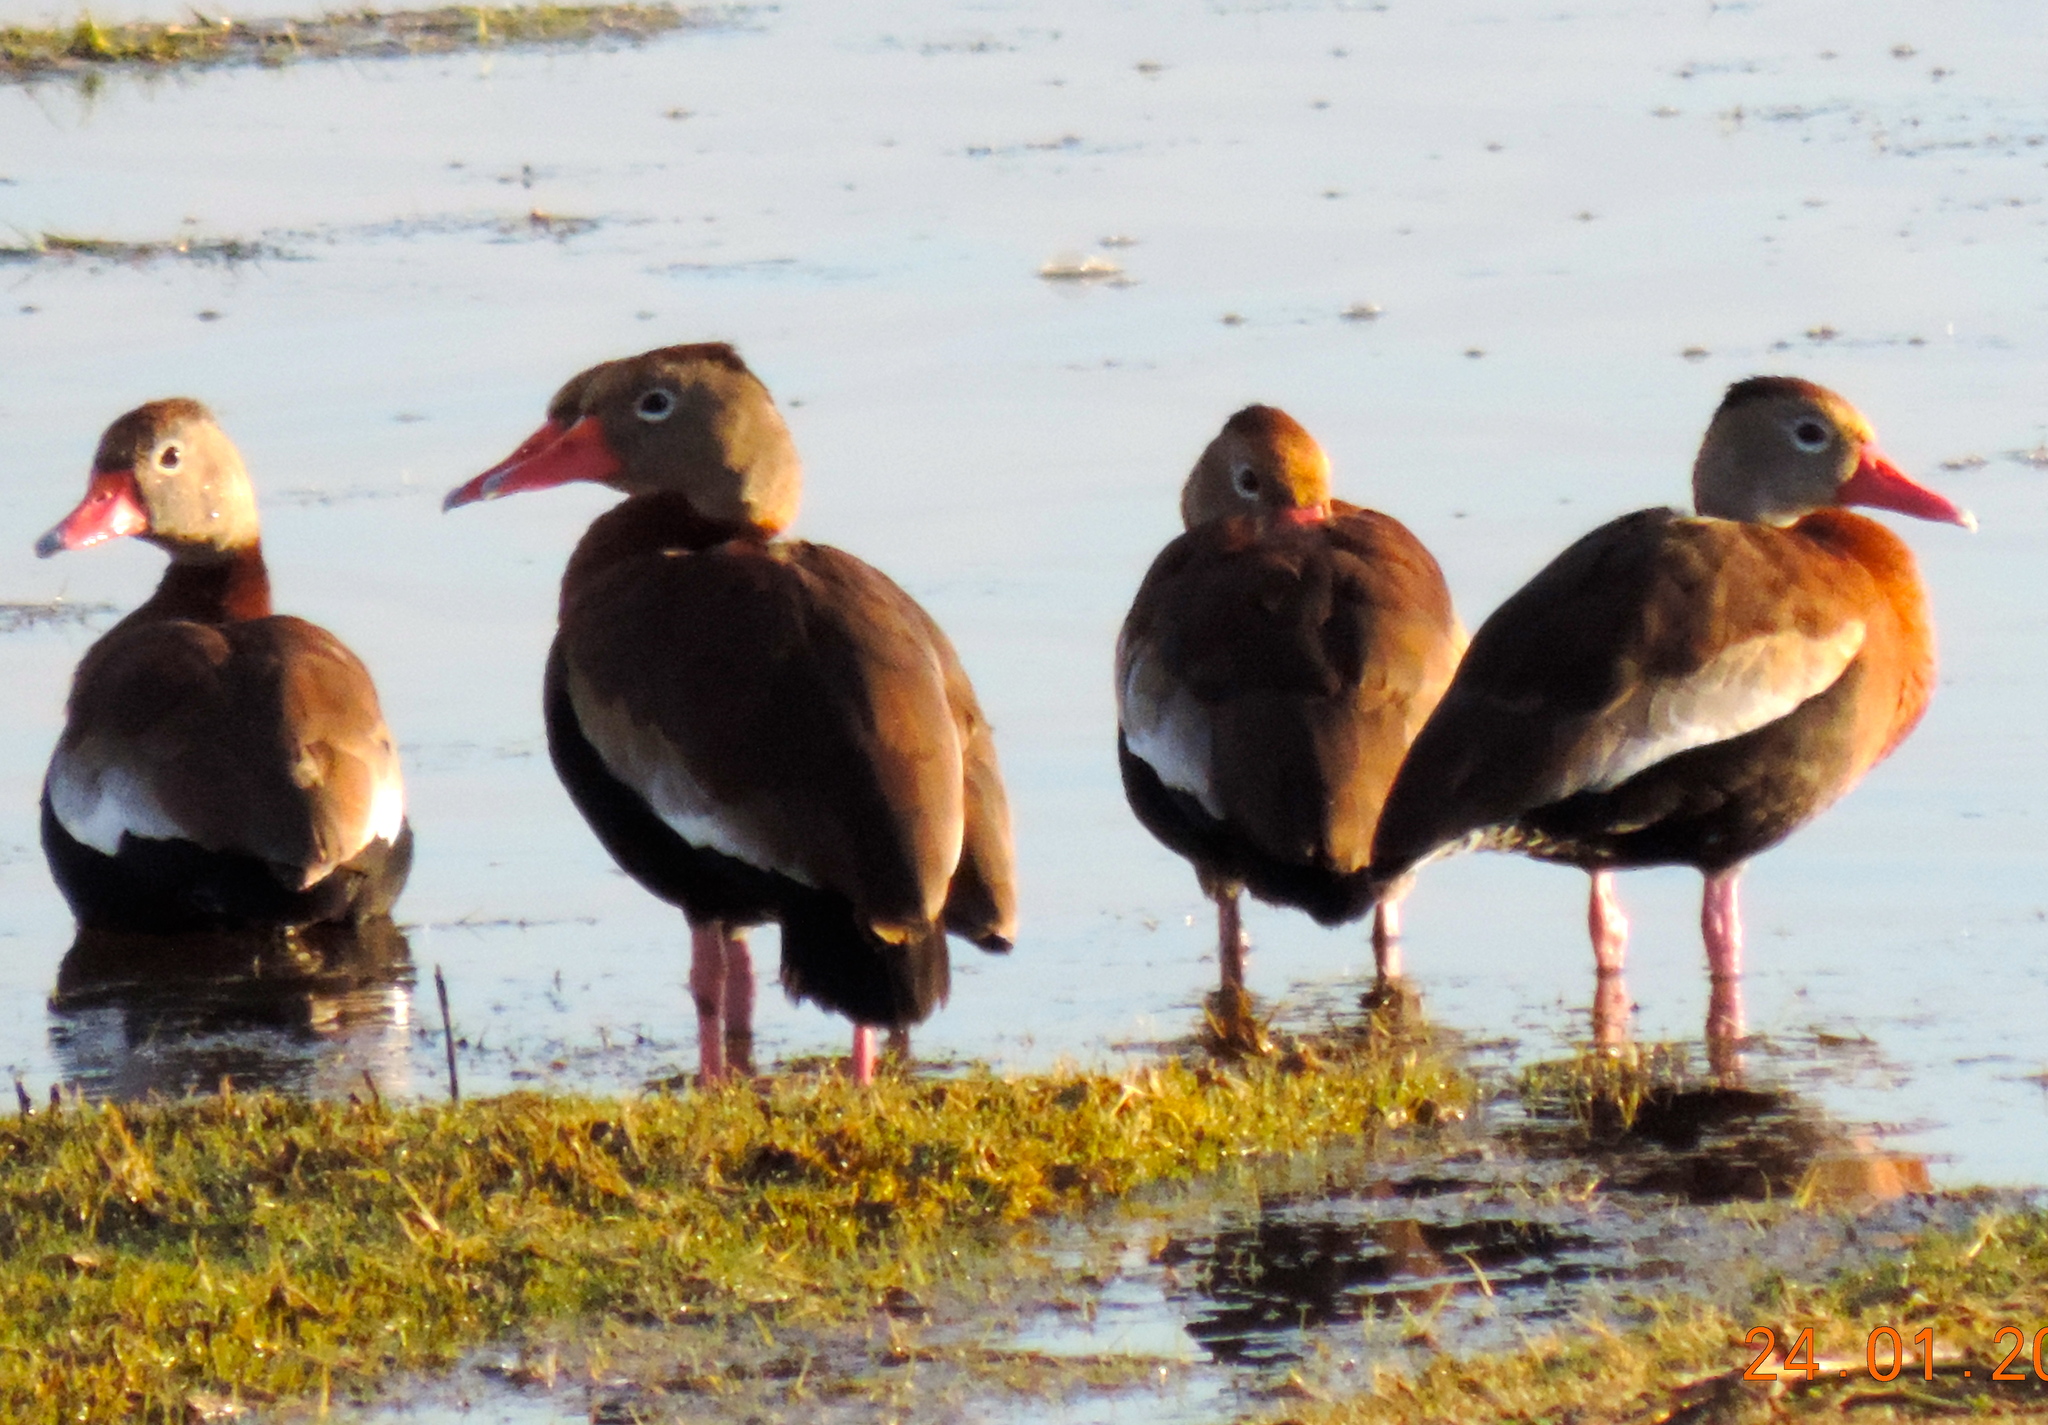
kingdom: Animalia
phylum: Chordata
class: Aves
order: Anseriformes
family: Anatidae
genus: Dendrocygna
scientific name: Dendrocygna autumnalis
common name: Black-bellied whistling duck
